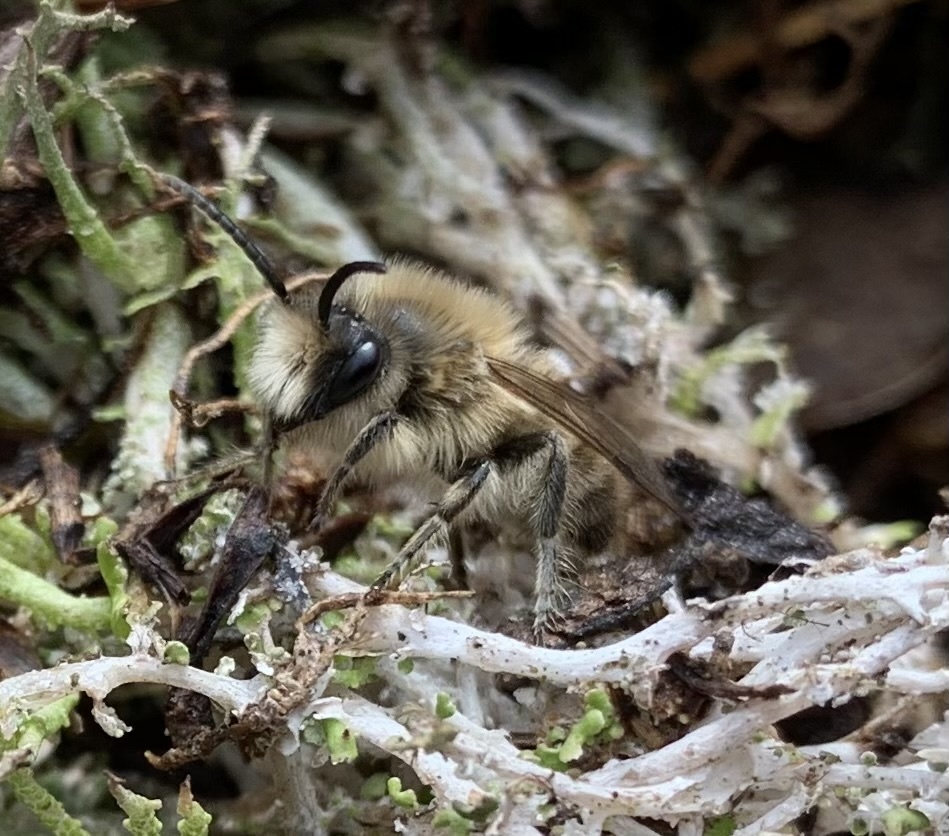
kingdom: Animalia
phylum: Arthropoda
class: Insecta
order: Hymenoptera
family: Colletidae
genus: Colletes
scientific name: Colletes cunicularius
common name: Early colletes
